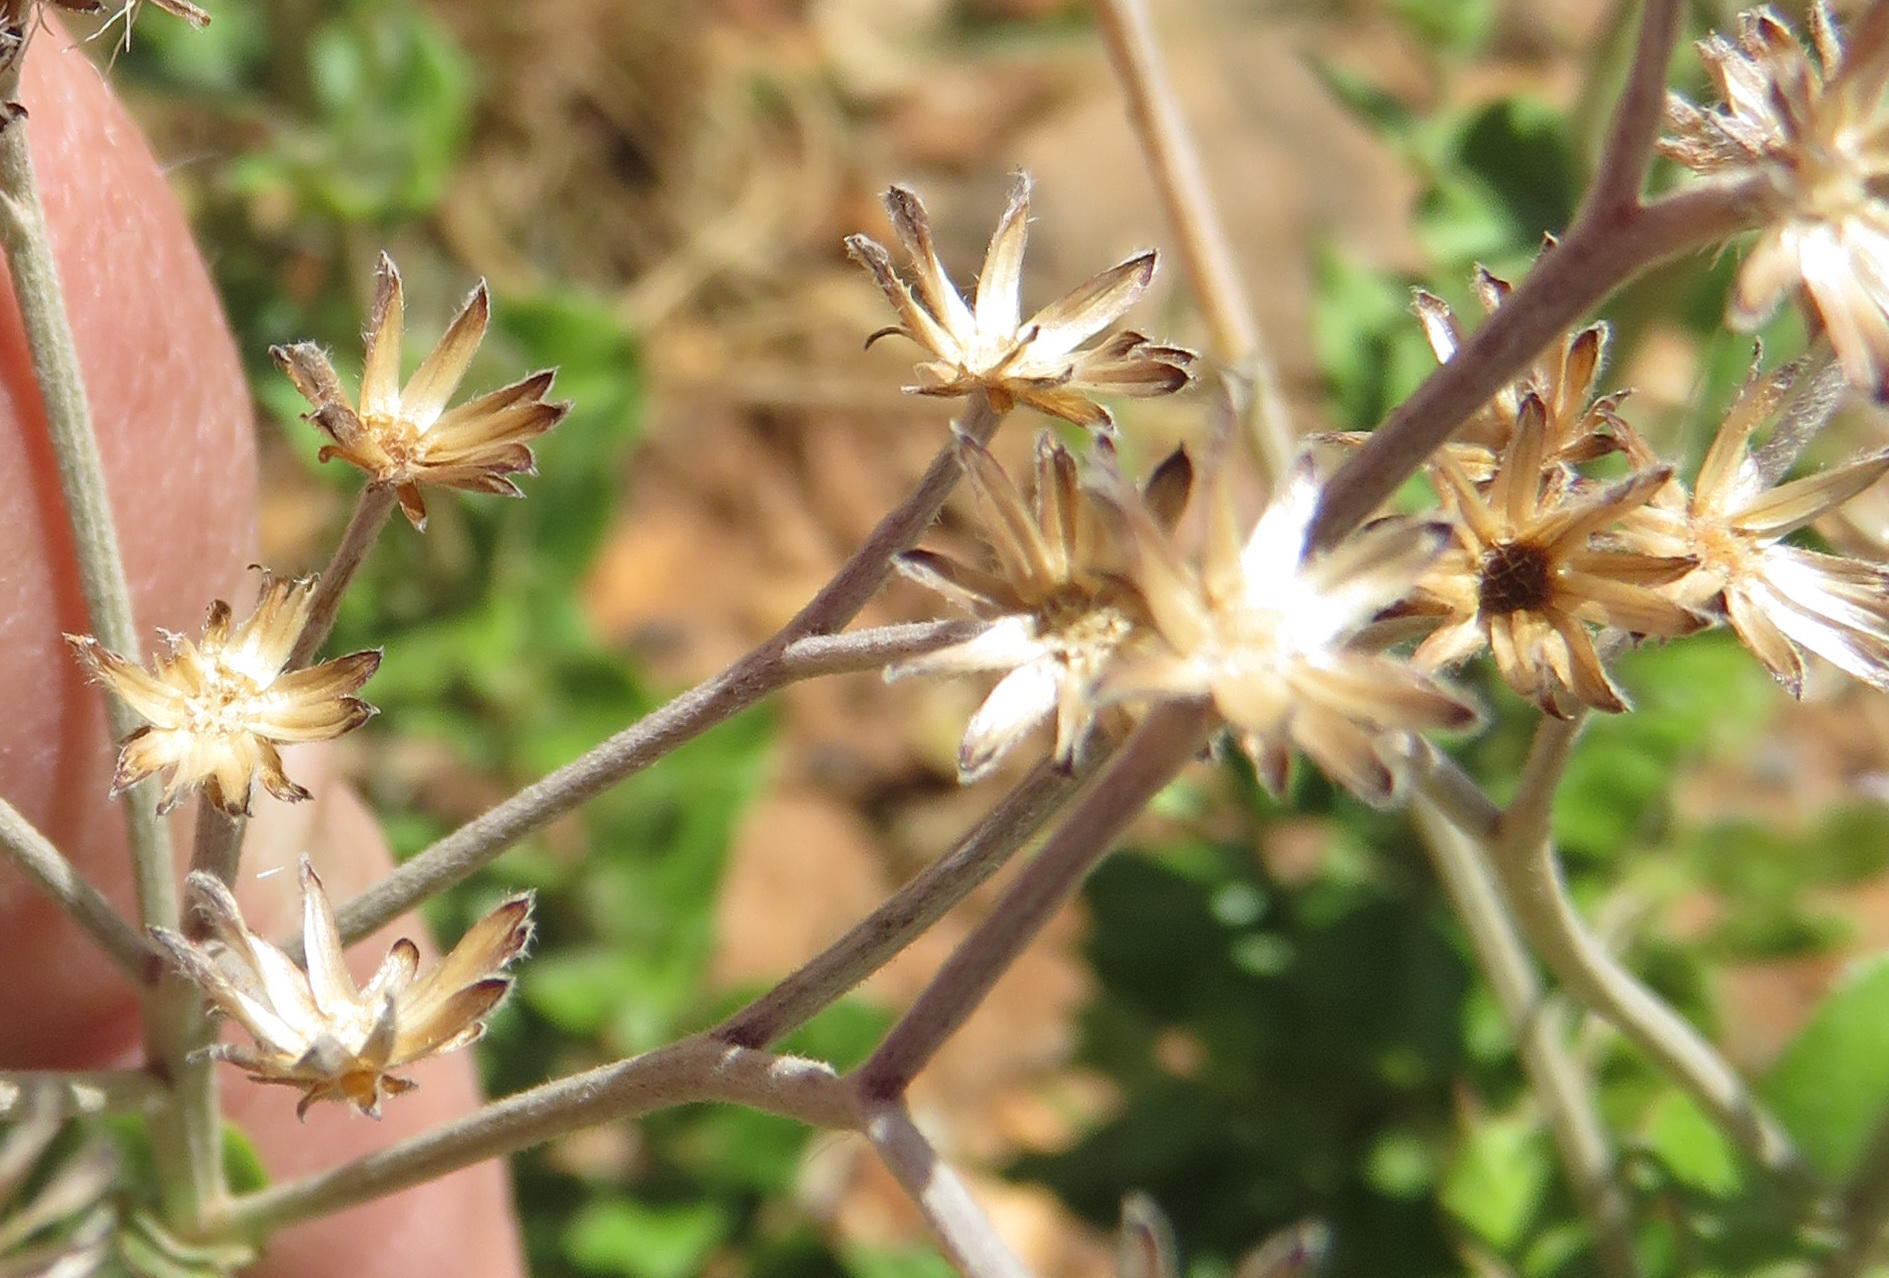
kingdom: Plantae
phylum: Tracheophyta
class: Magnoliopsida
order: Asterales
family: Asteraceae
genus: Hilliardiella
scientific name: Hilliardiella oligocephala
